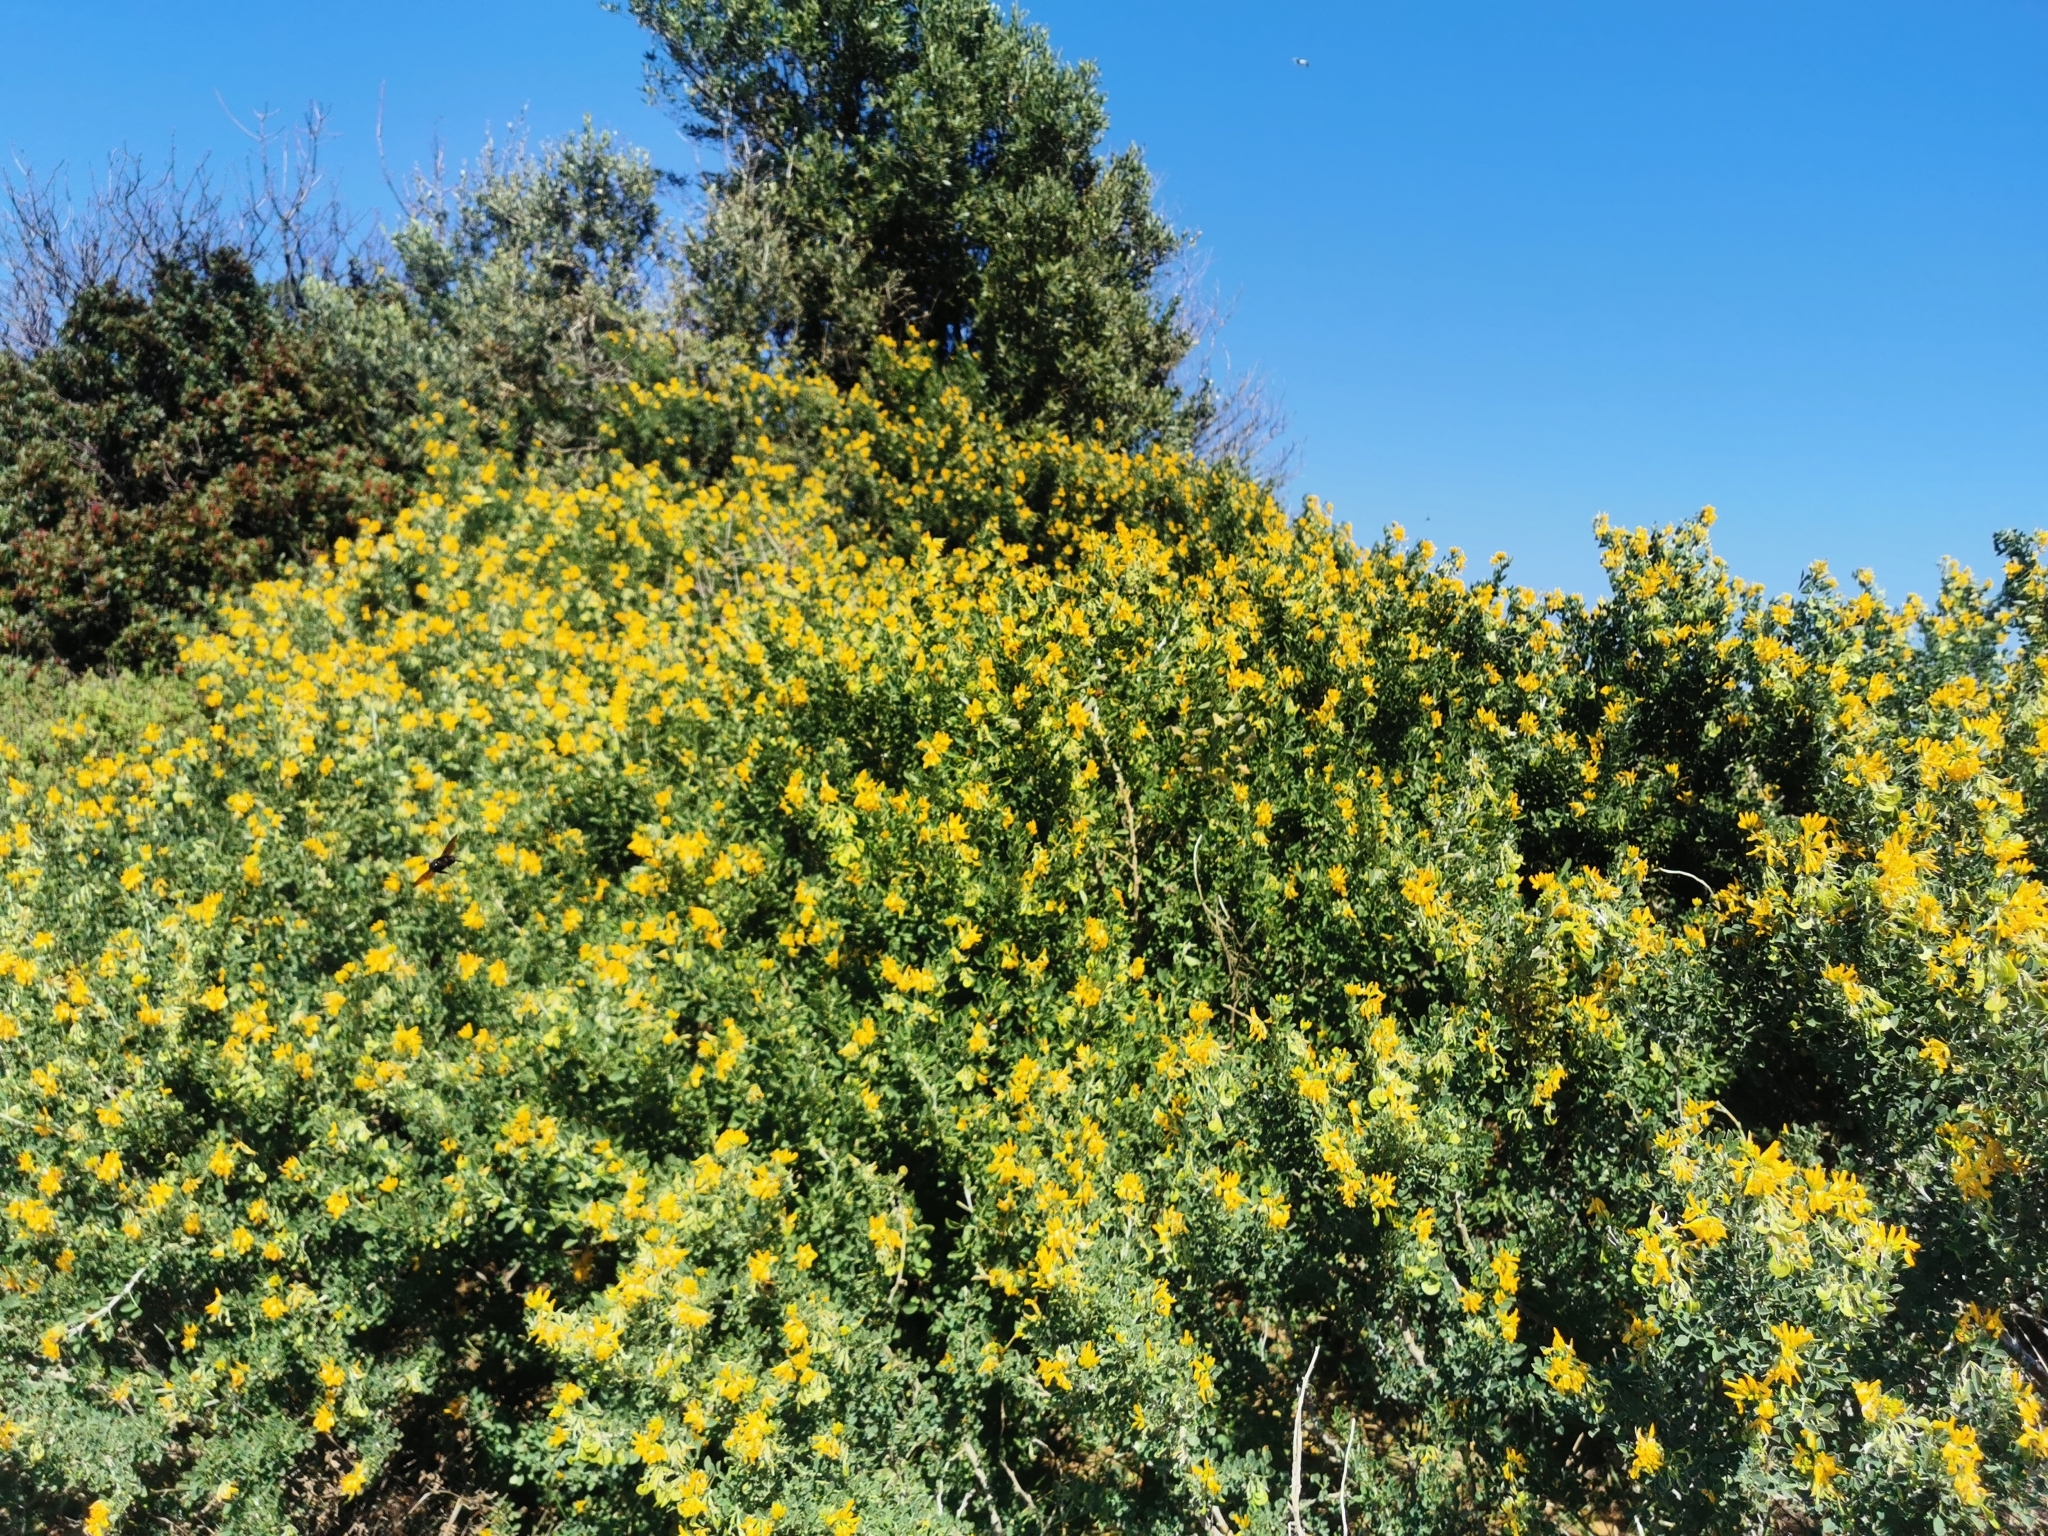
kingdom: Plantae
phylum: Tracheophyta
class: Magnoliopsida
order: Fabales
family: Fabaceae
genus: Medicago
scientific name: Medicago arborea
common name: Moon trefoil
